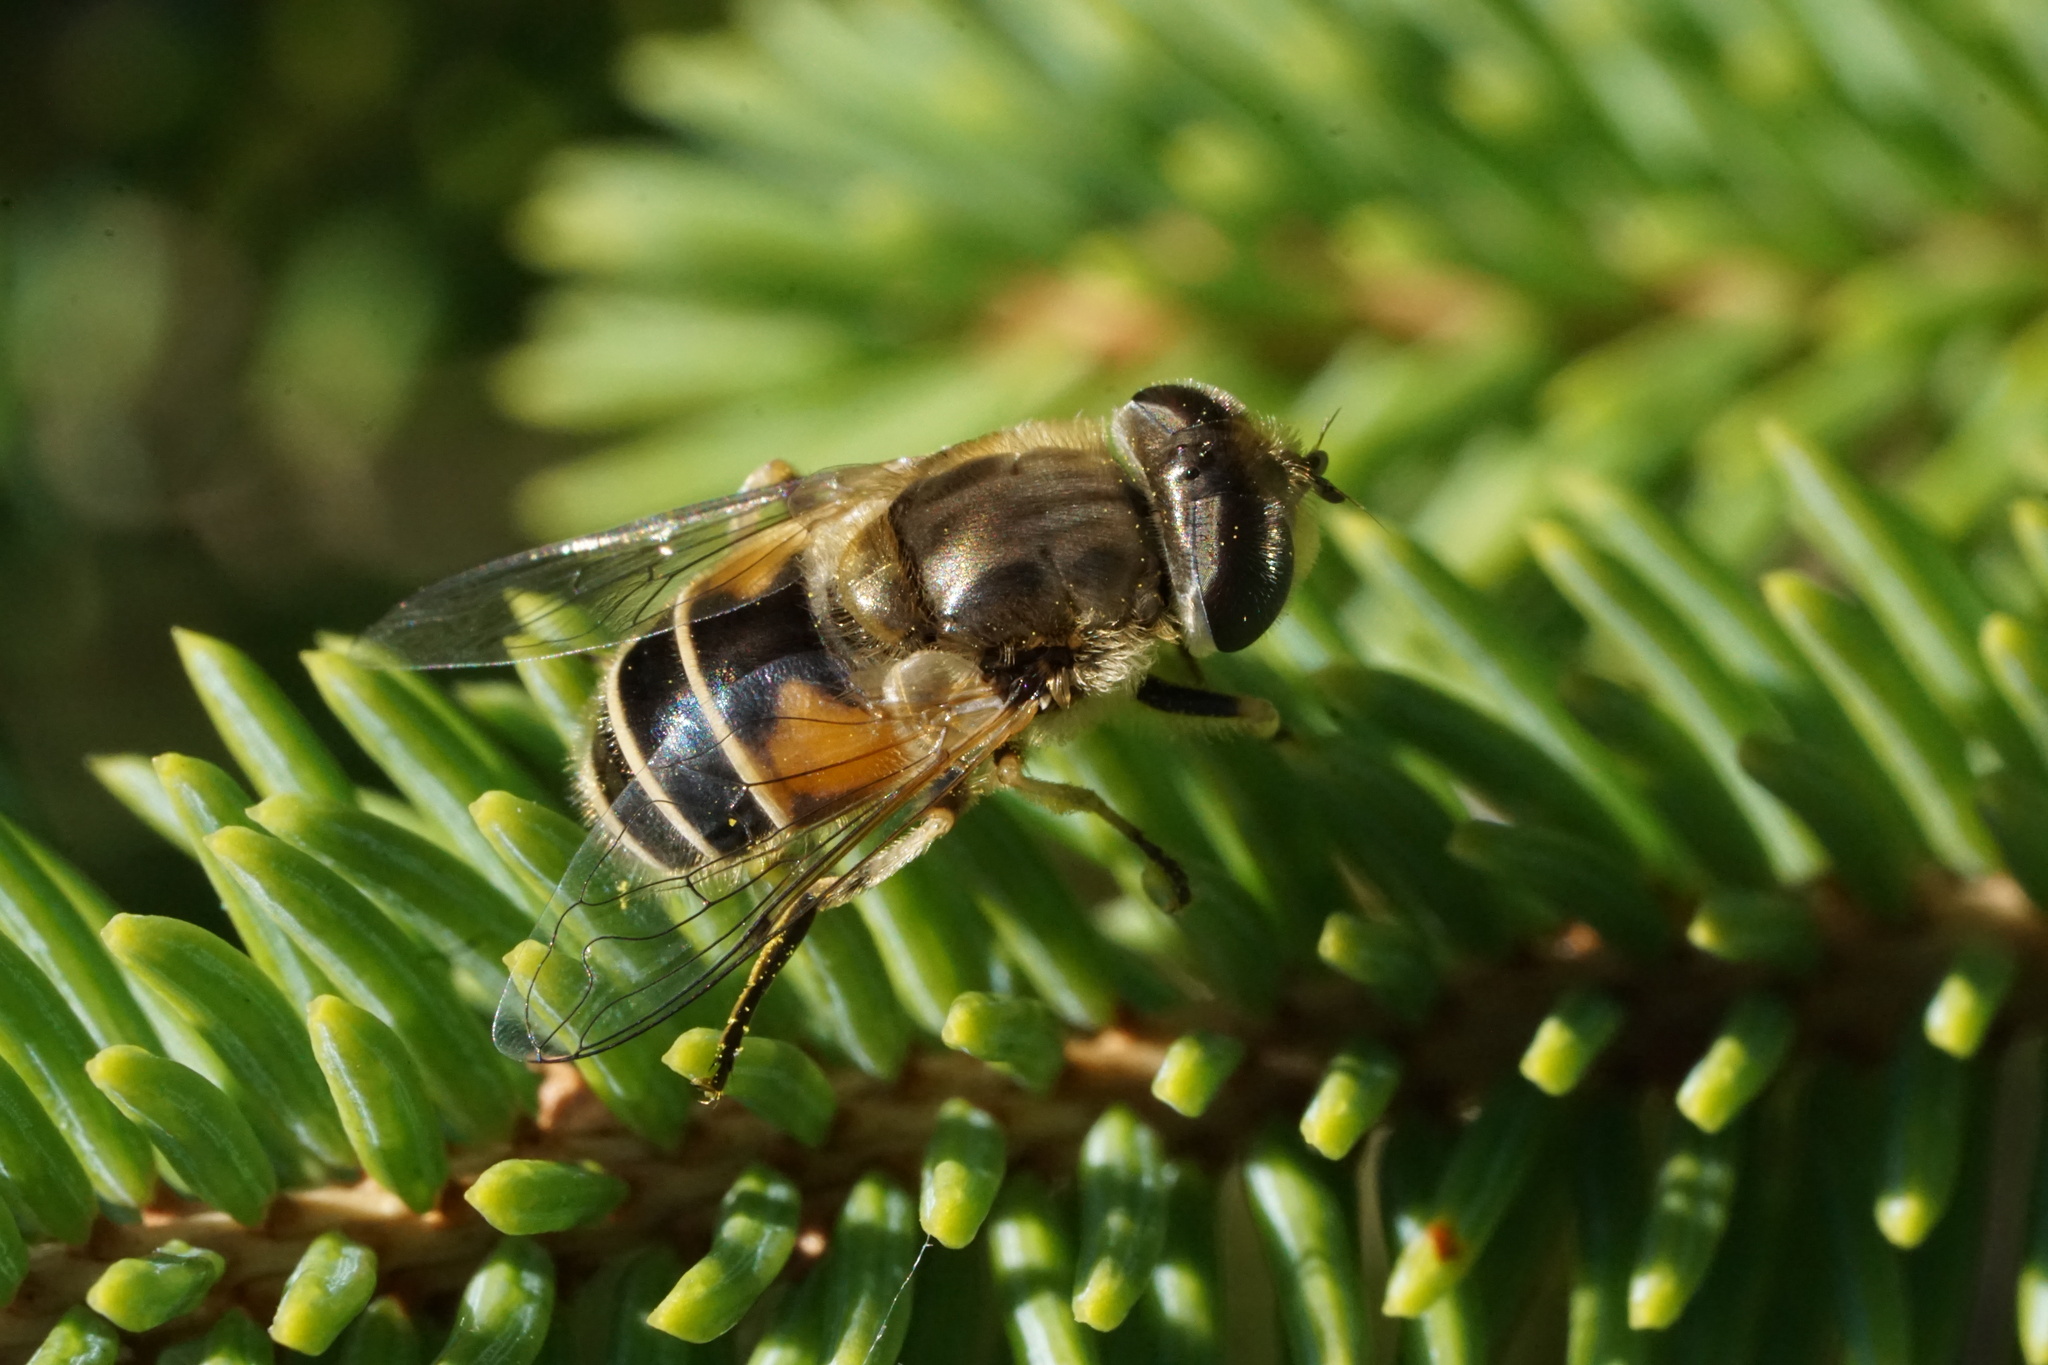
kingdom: Animalia
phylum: Arthropoda
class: Insecta
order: Diptera
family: Syrphidae
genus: Eristalis
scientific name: Eristalis arbustorum
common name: Hover fly
